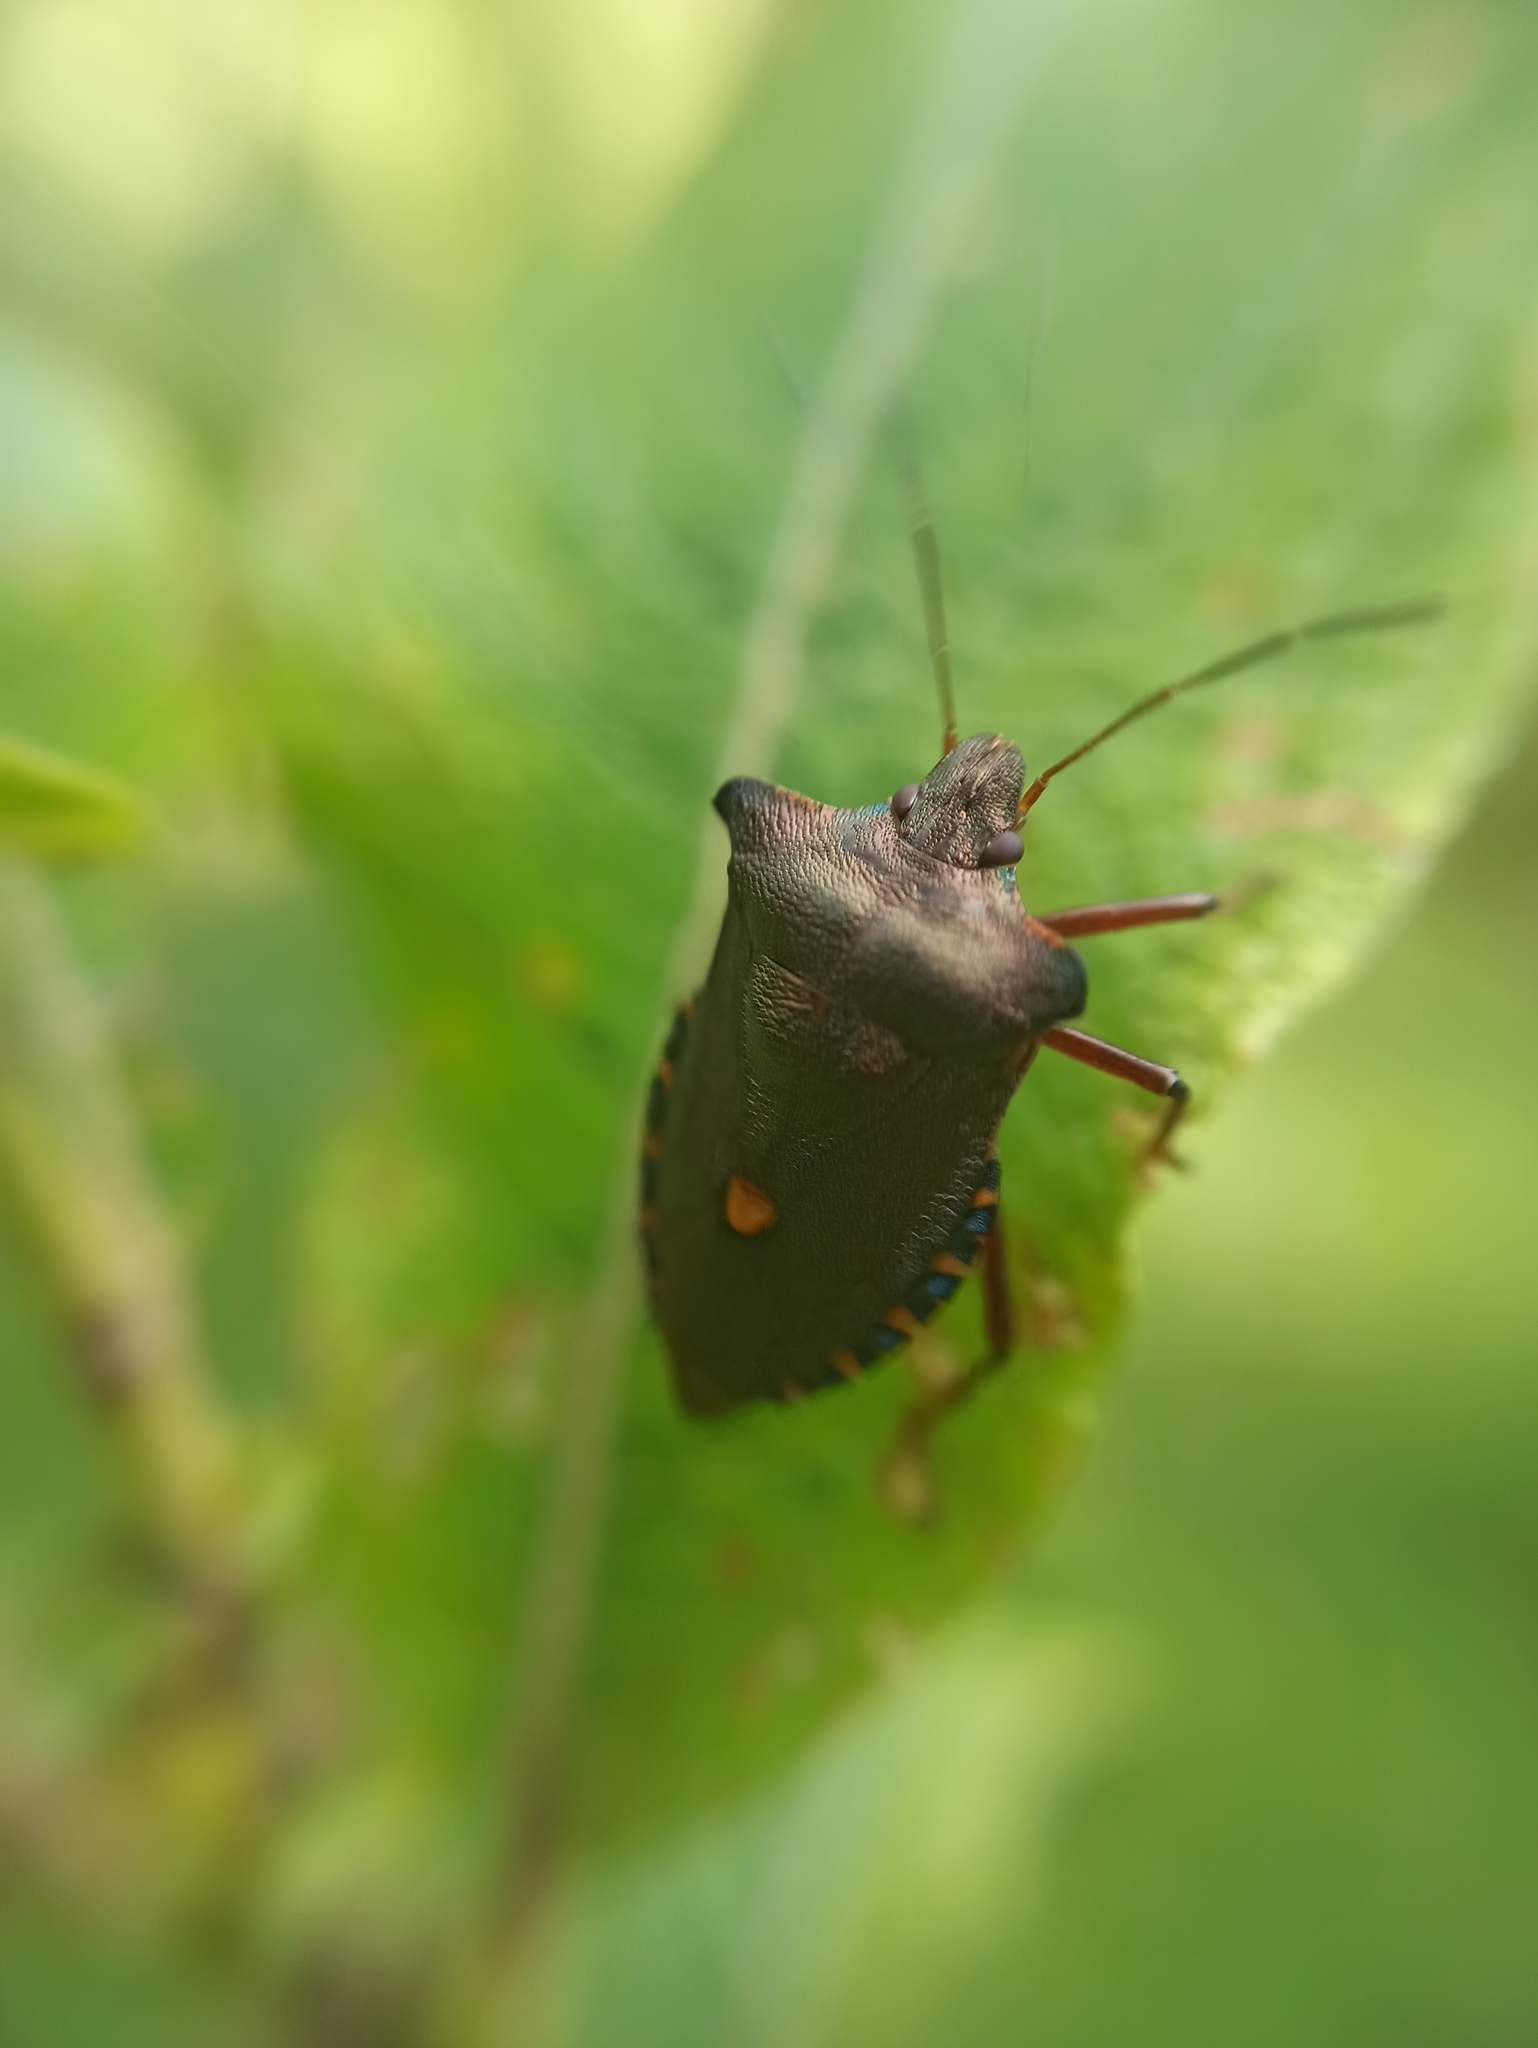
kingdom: Animalia
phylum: Arthropoda
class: Insecta
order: Hemiptera
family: Pentatomidae
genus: Pentatoma
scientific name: Pentatoma rufipes
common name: Forest bug
